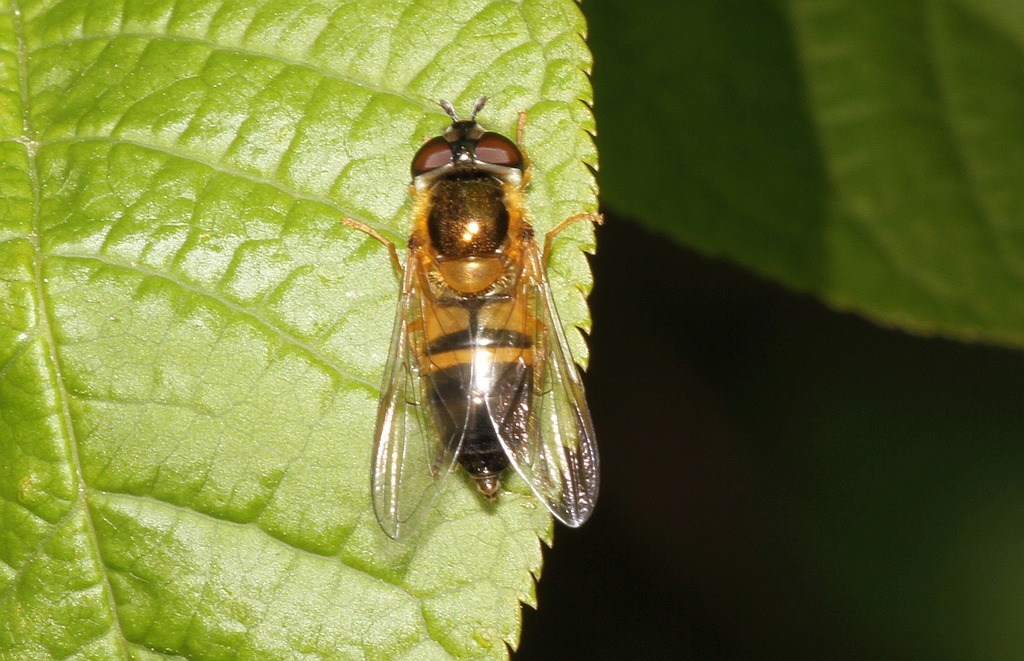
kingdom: Animalia
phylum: Arthropoda
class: Insecta
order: Diptera
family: Syrphidae
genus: Epistrophe
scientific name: Epistrophe eligans
